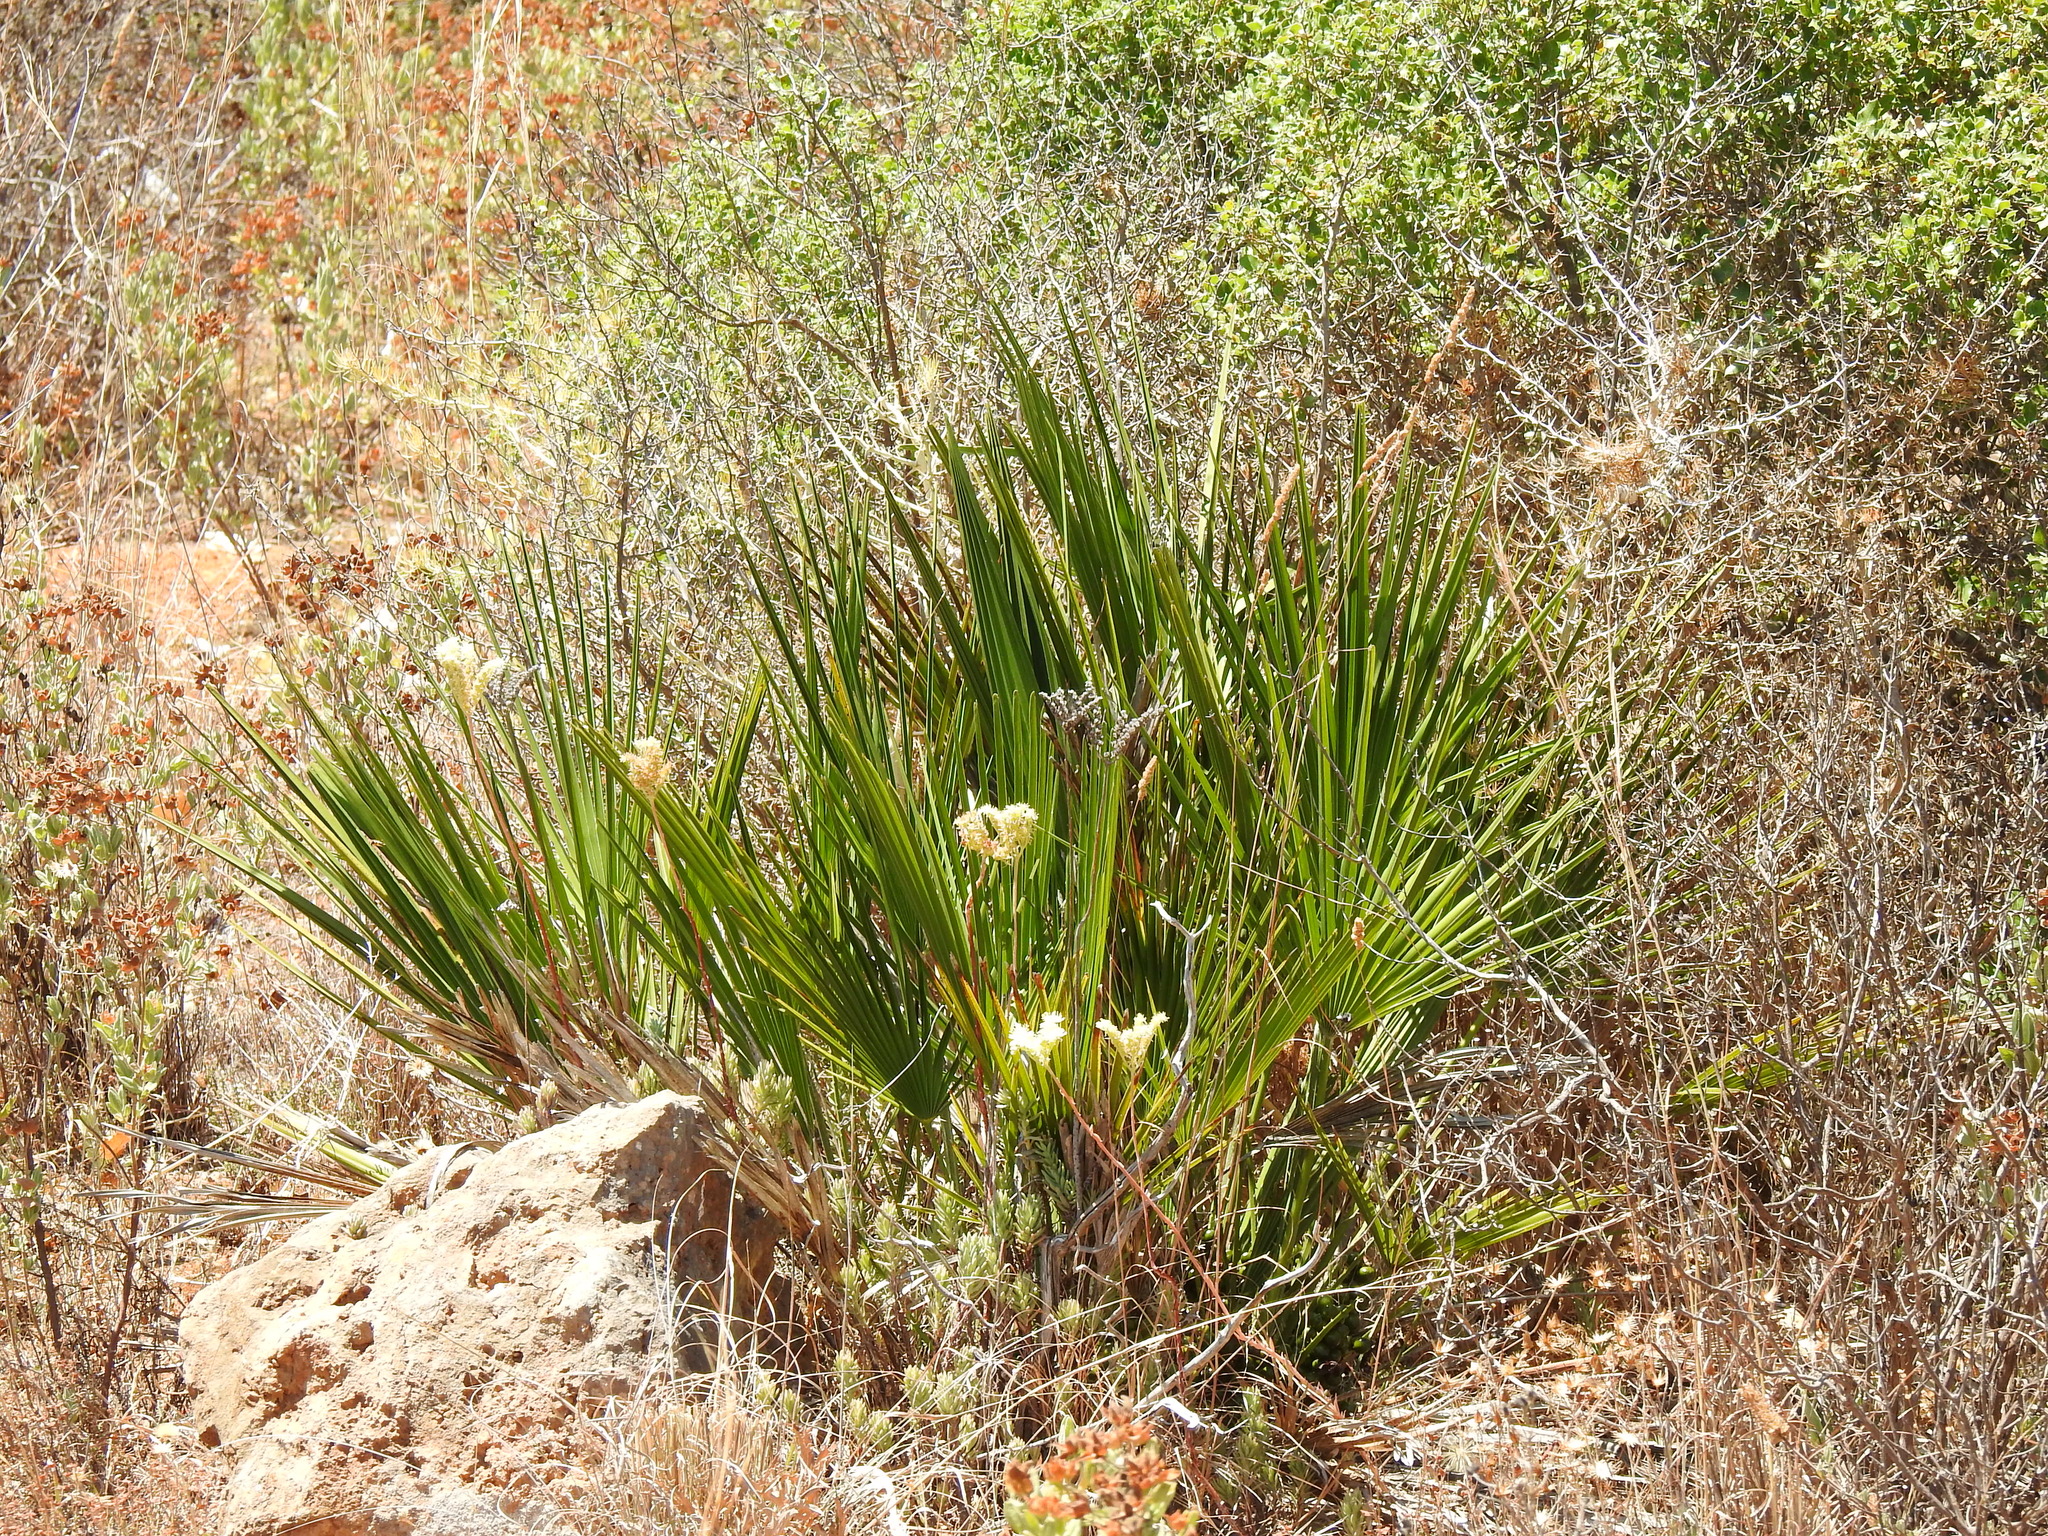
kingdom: Plantae
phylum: Tracheophyta
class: Liliopsida
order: Arecales
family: Arecaceae
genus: Chamaerops
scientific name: Chamaerops humilis
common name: Dwarf fan palm
